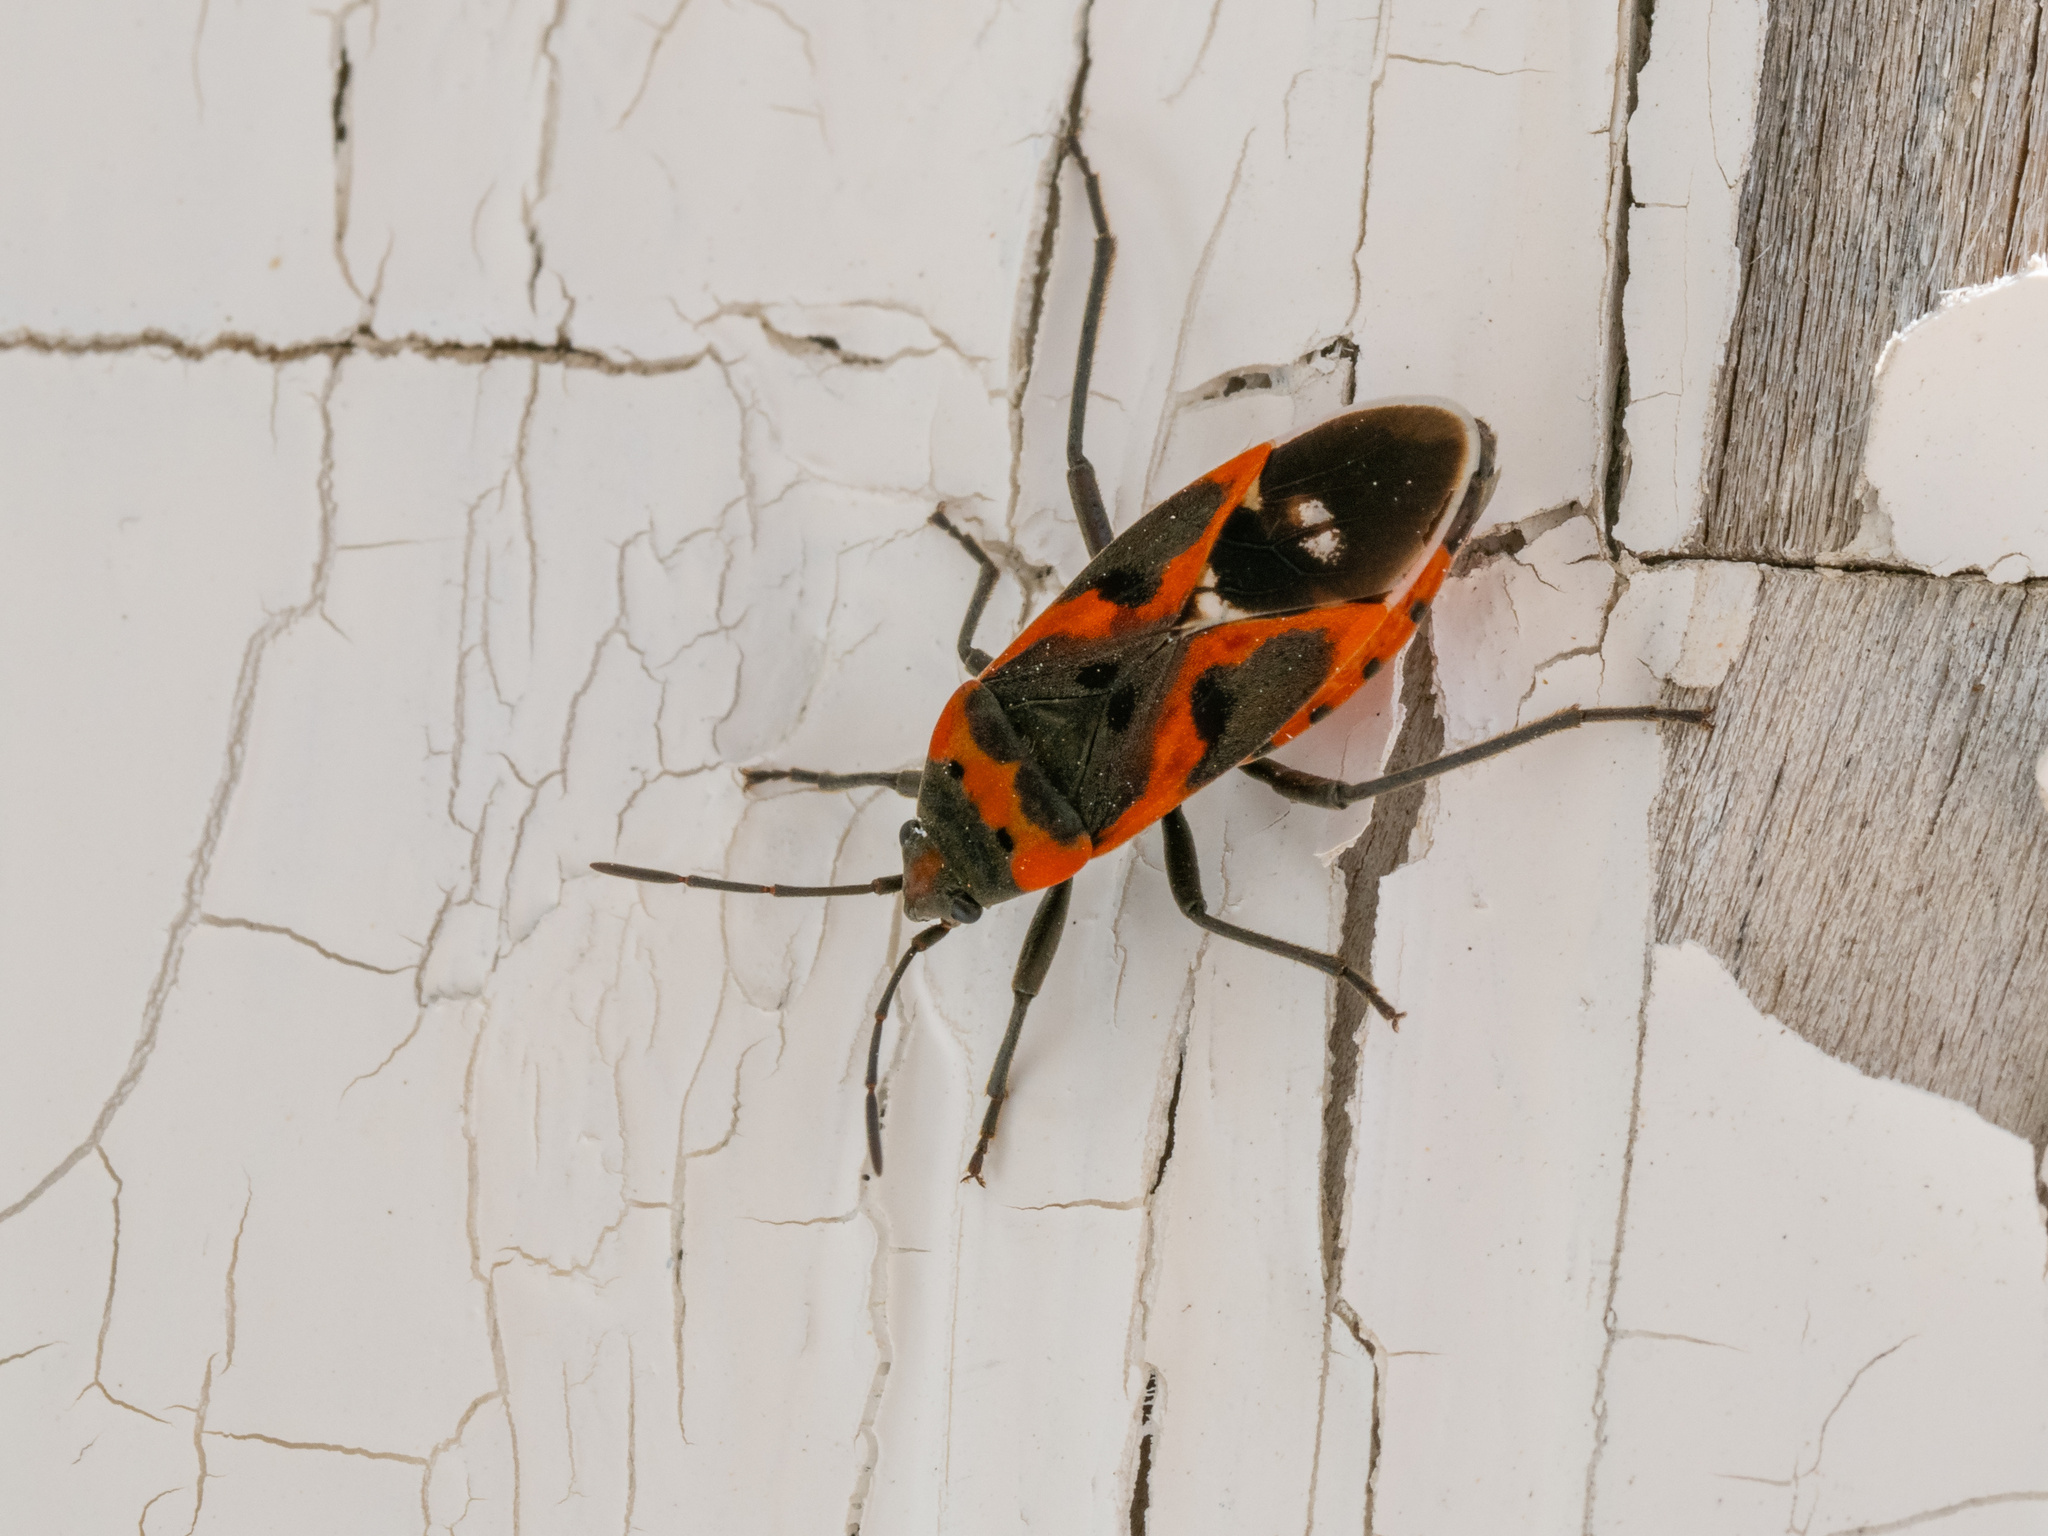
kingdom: Animalia
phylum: Arthropoda
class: Insecta
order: Hemiptera
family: Lygaeidae
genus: Lygaeus
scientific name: Lygaeus kalmii
